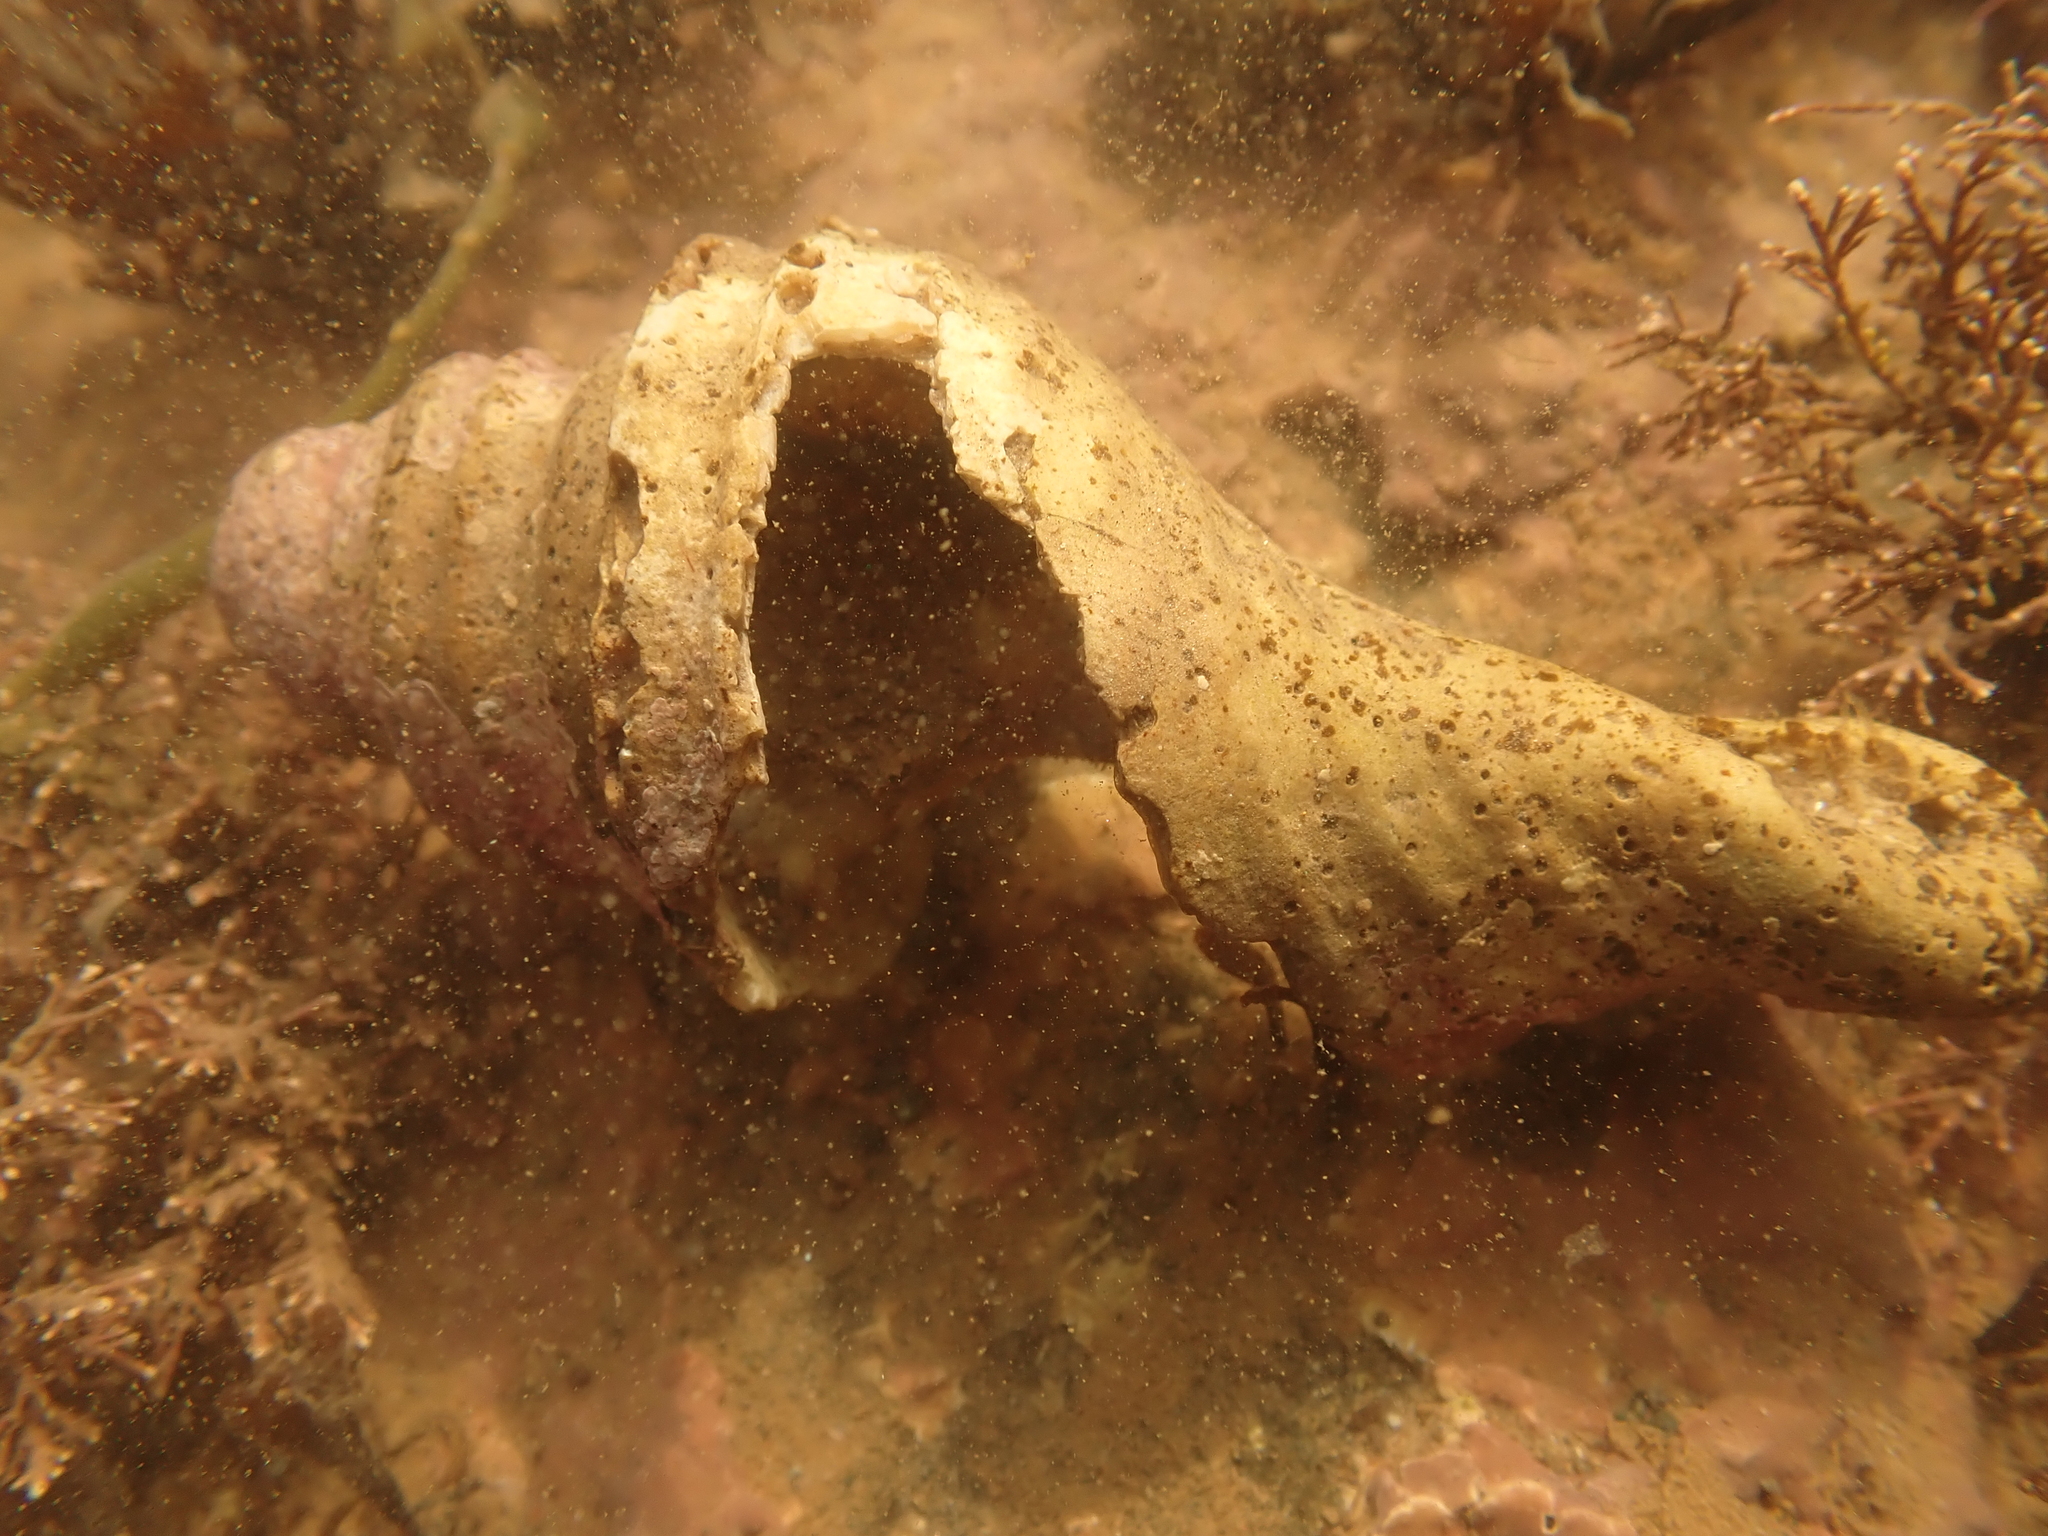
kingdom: Animalia
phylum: Mollusca
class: Gastropoda
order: Neogastropoda
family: Buccinidae
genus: Neptunea
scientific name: Neptunea decemcostata
